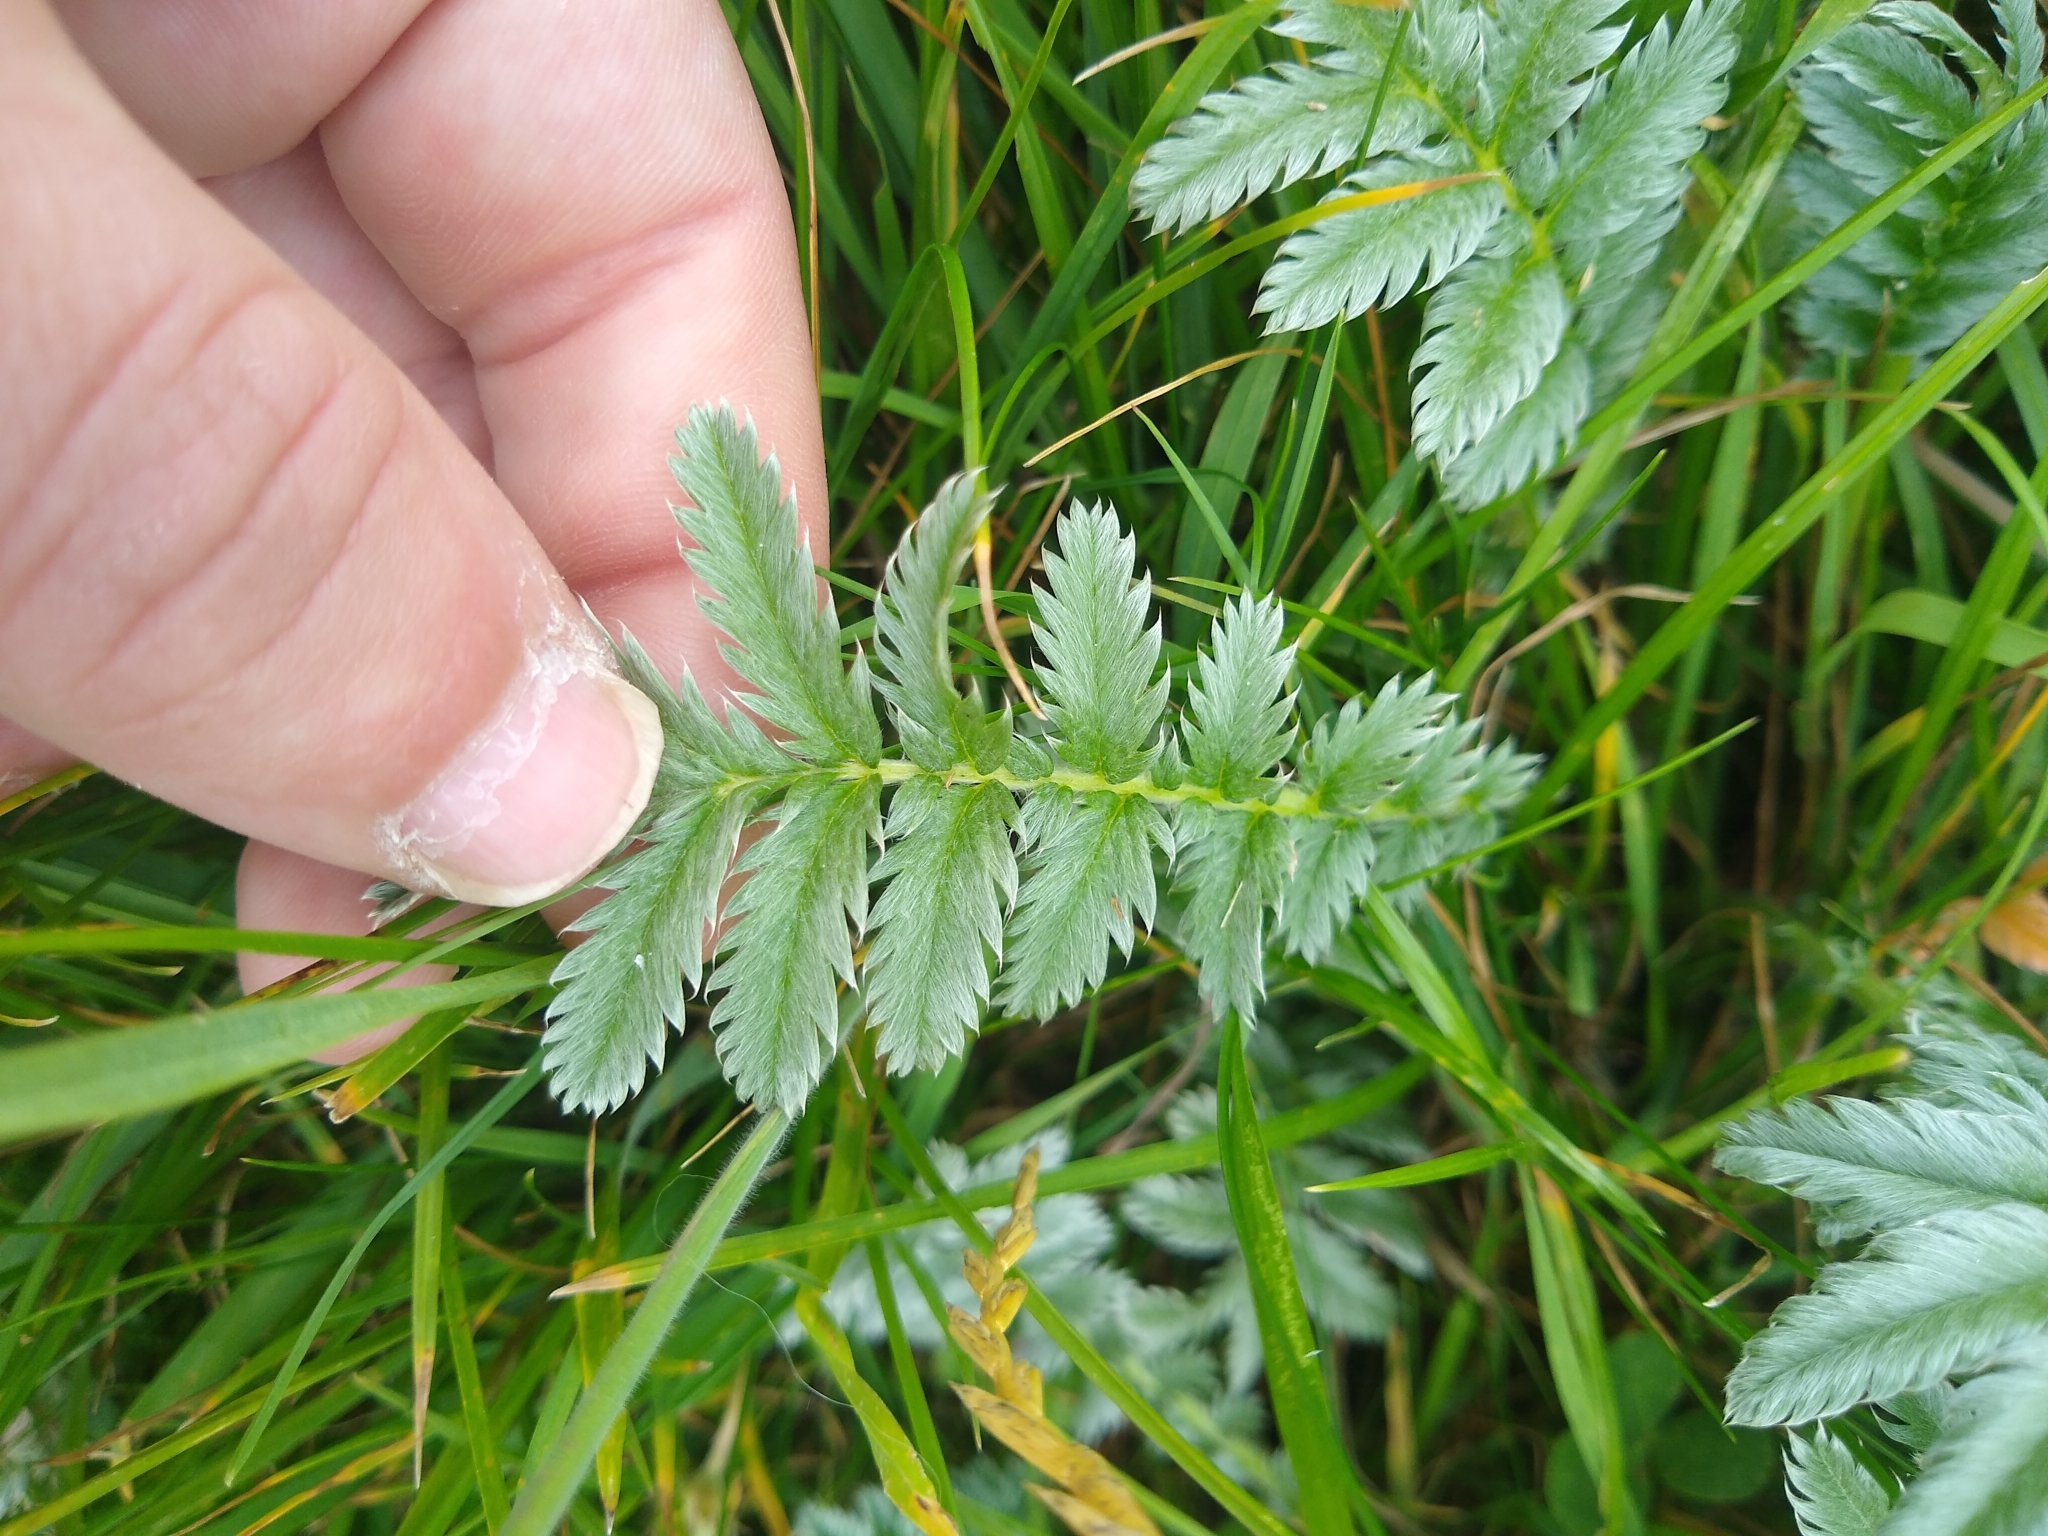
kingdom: Plantae
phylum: Tracheophyta
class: Magnoliopsida
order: Rosales
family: Rosaceae
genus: Argentina
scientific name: Argentina anserina
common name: Common silverweed
